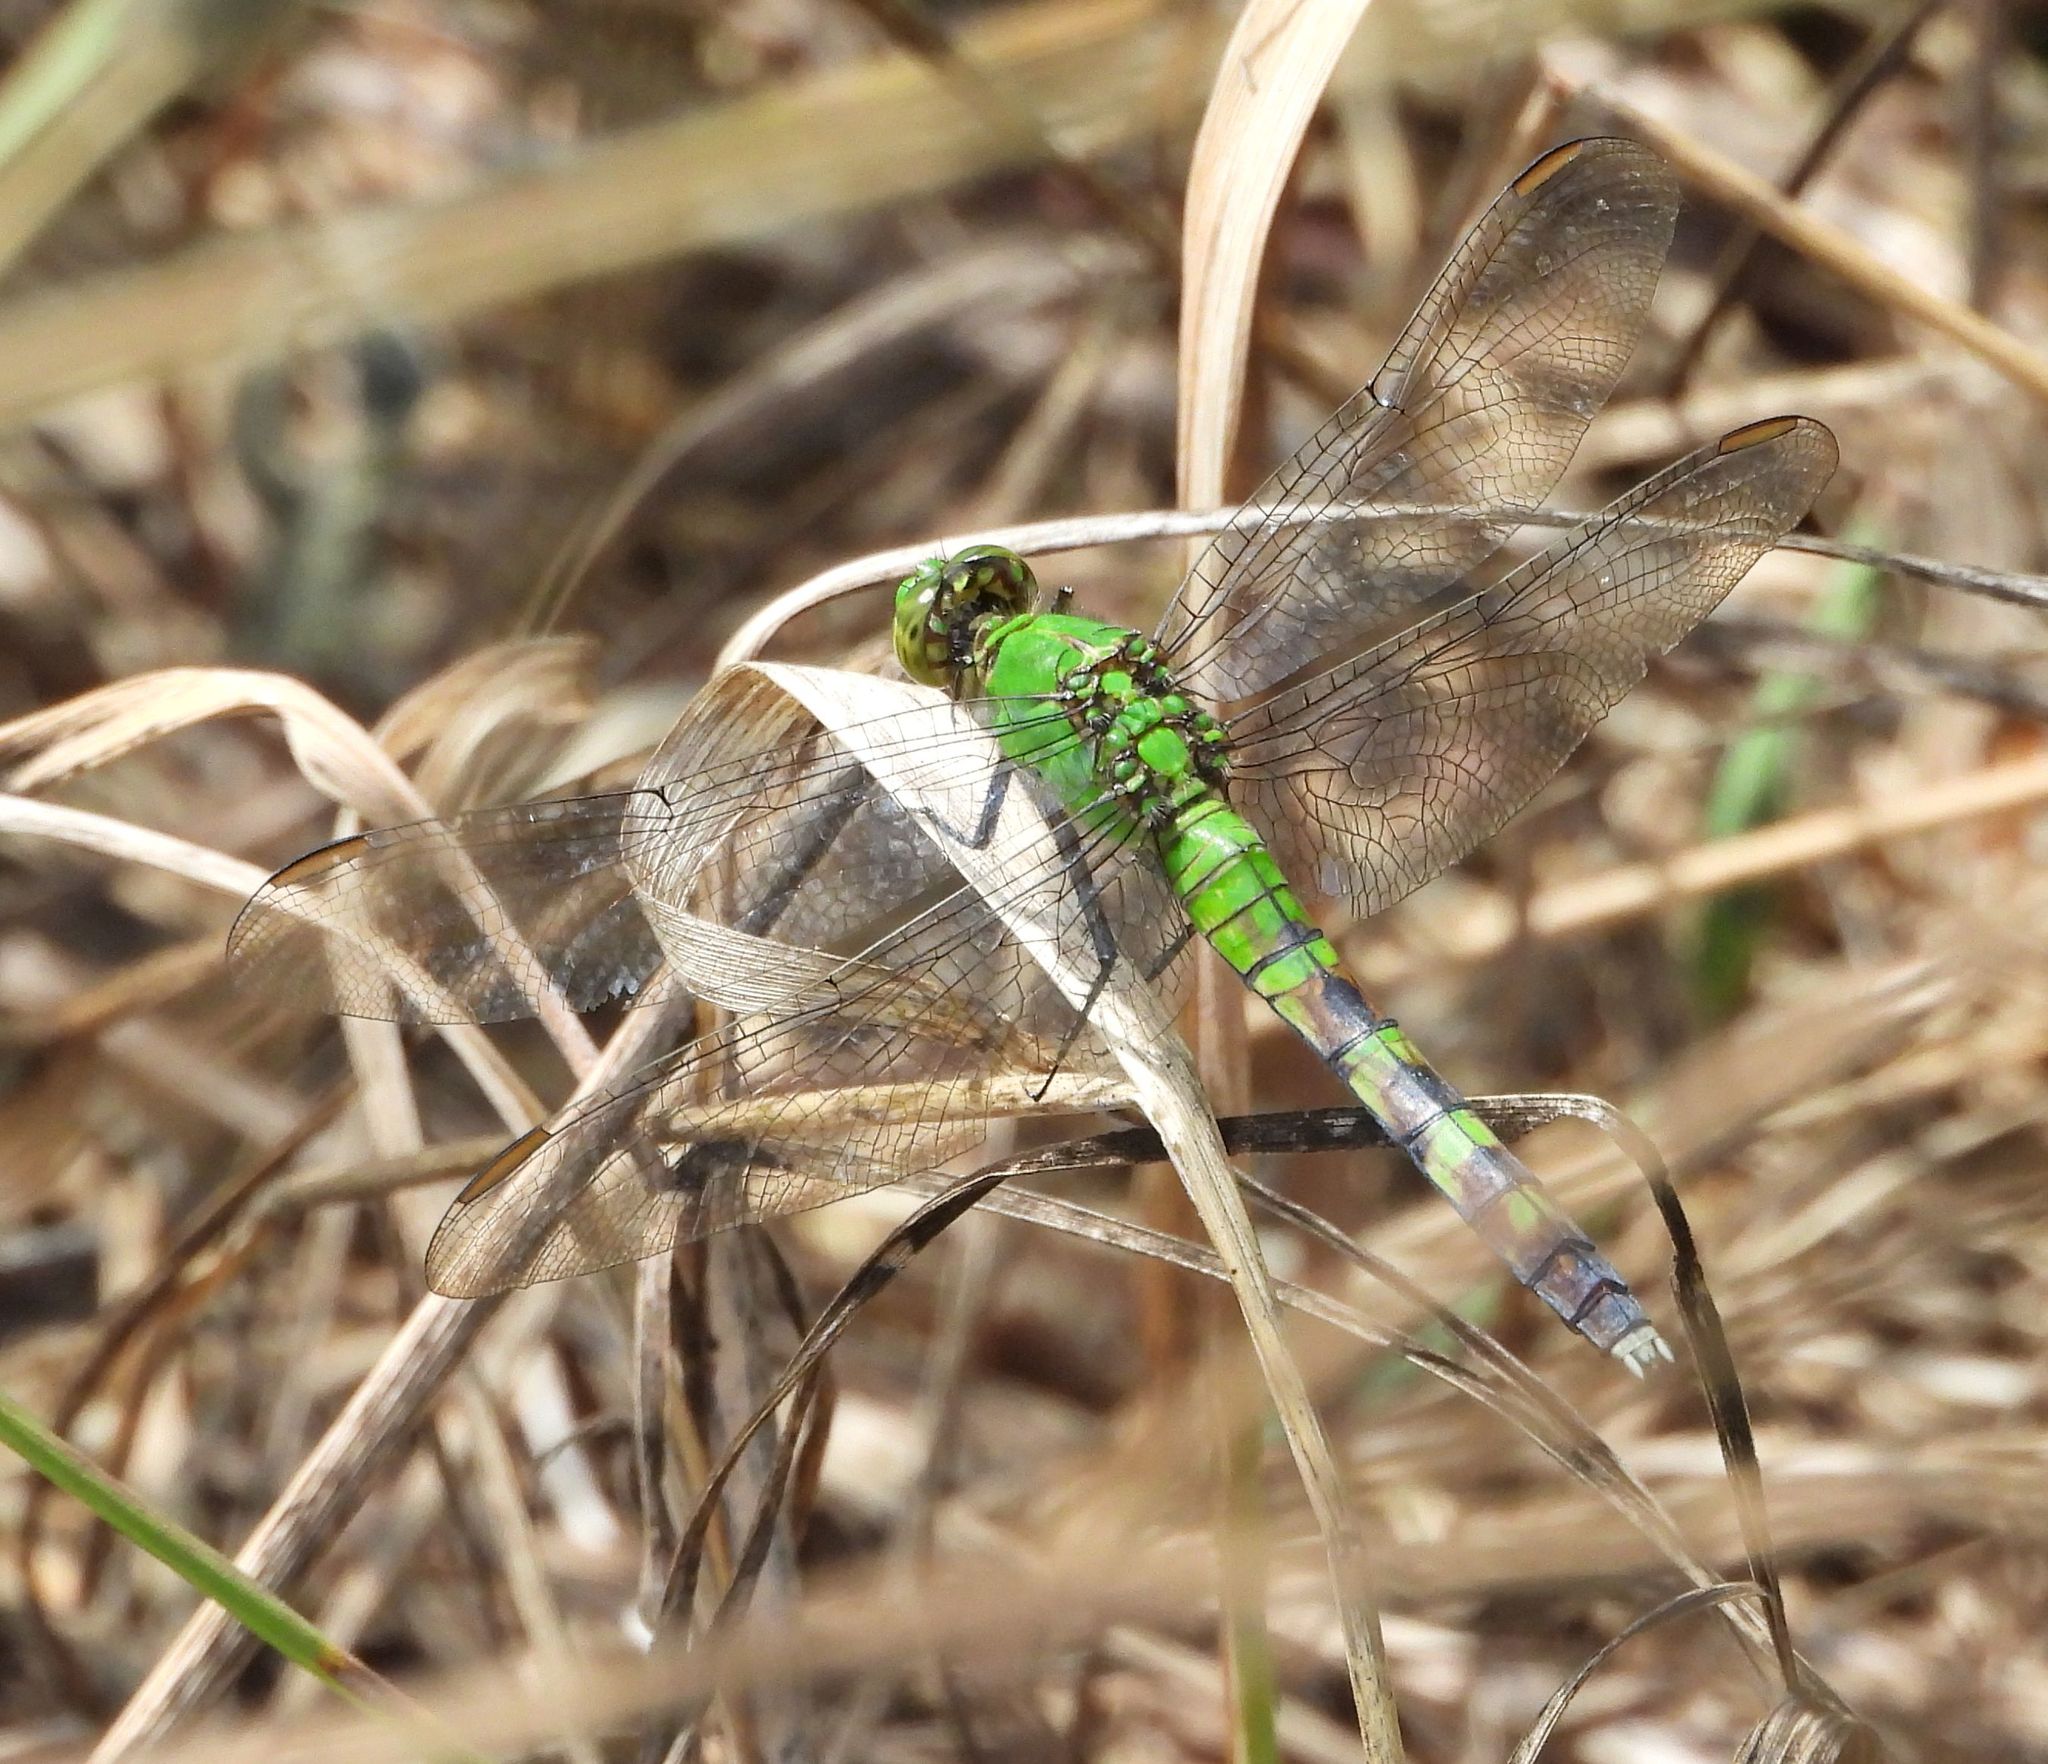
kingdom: Animalia
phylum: Arthropoda
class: Insecta
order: Odonata
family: Libellulidae
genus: Erythemis
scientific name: Erythemis simplicicollis
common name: Eastern pondhawk
